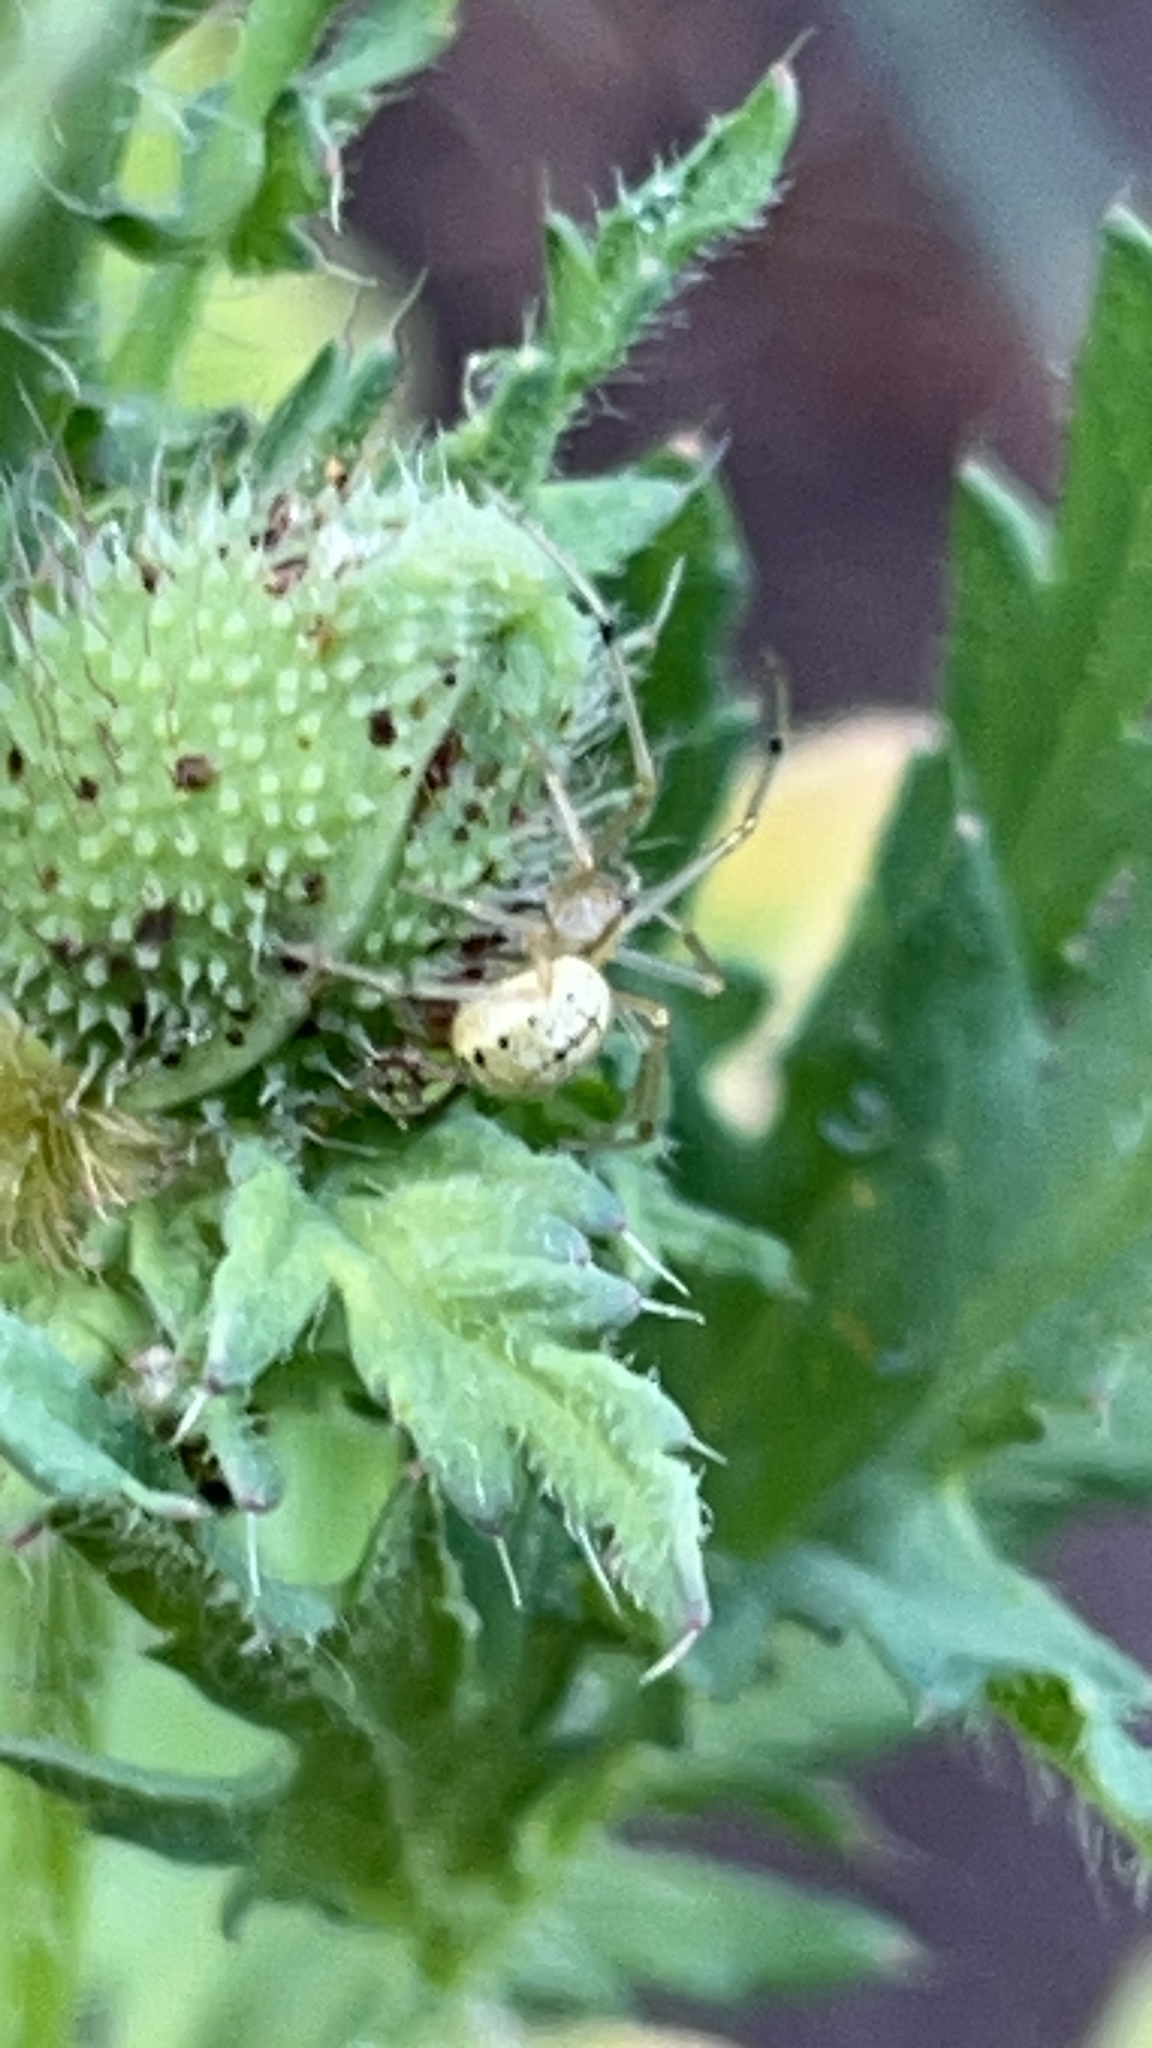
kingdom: Animalia
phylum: Arthropoda
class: Arachnida
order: Araneae
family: Theridiidae
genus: Enoplognatha
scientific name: Enoplognatha ovata
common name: Common candy-striped spider
